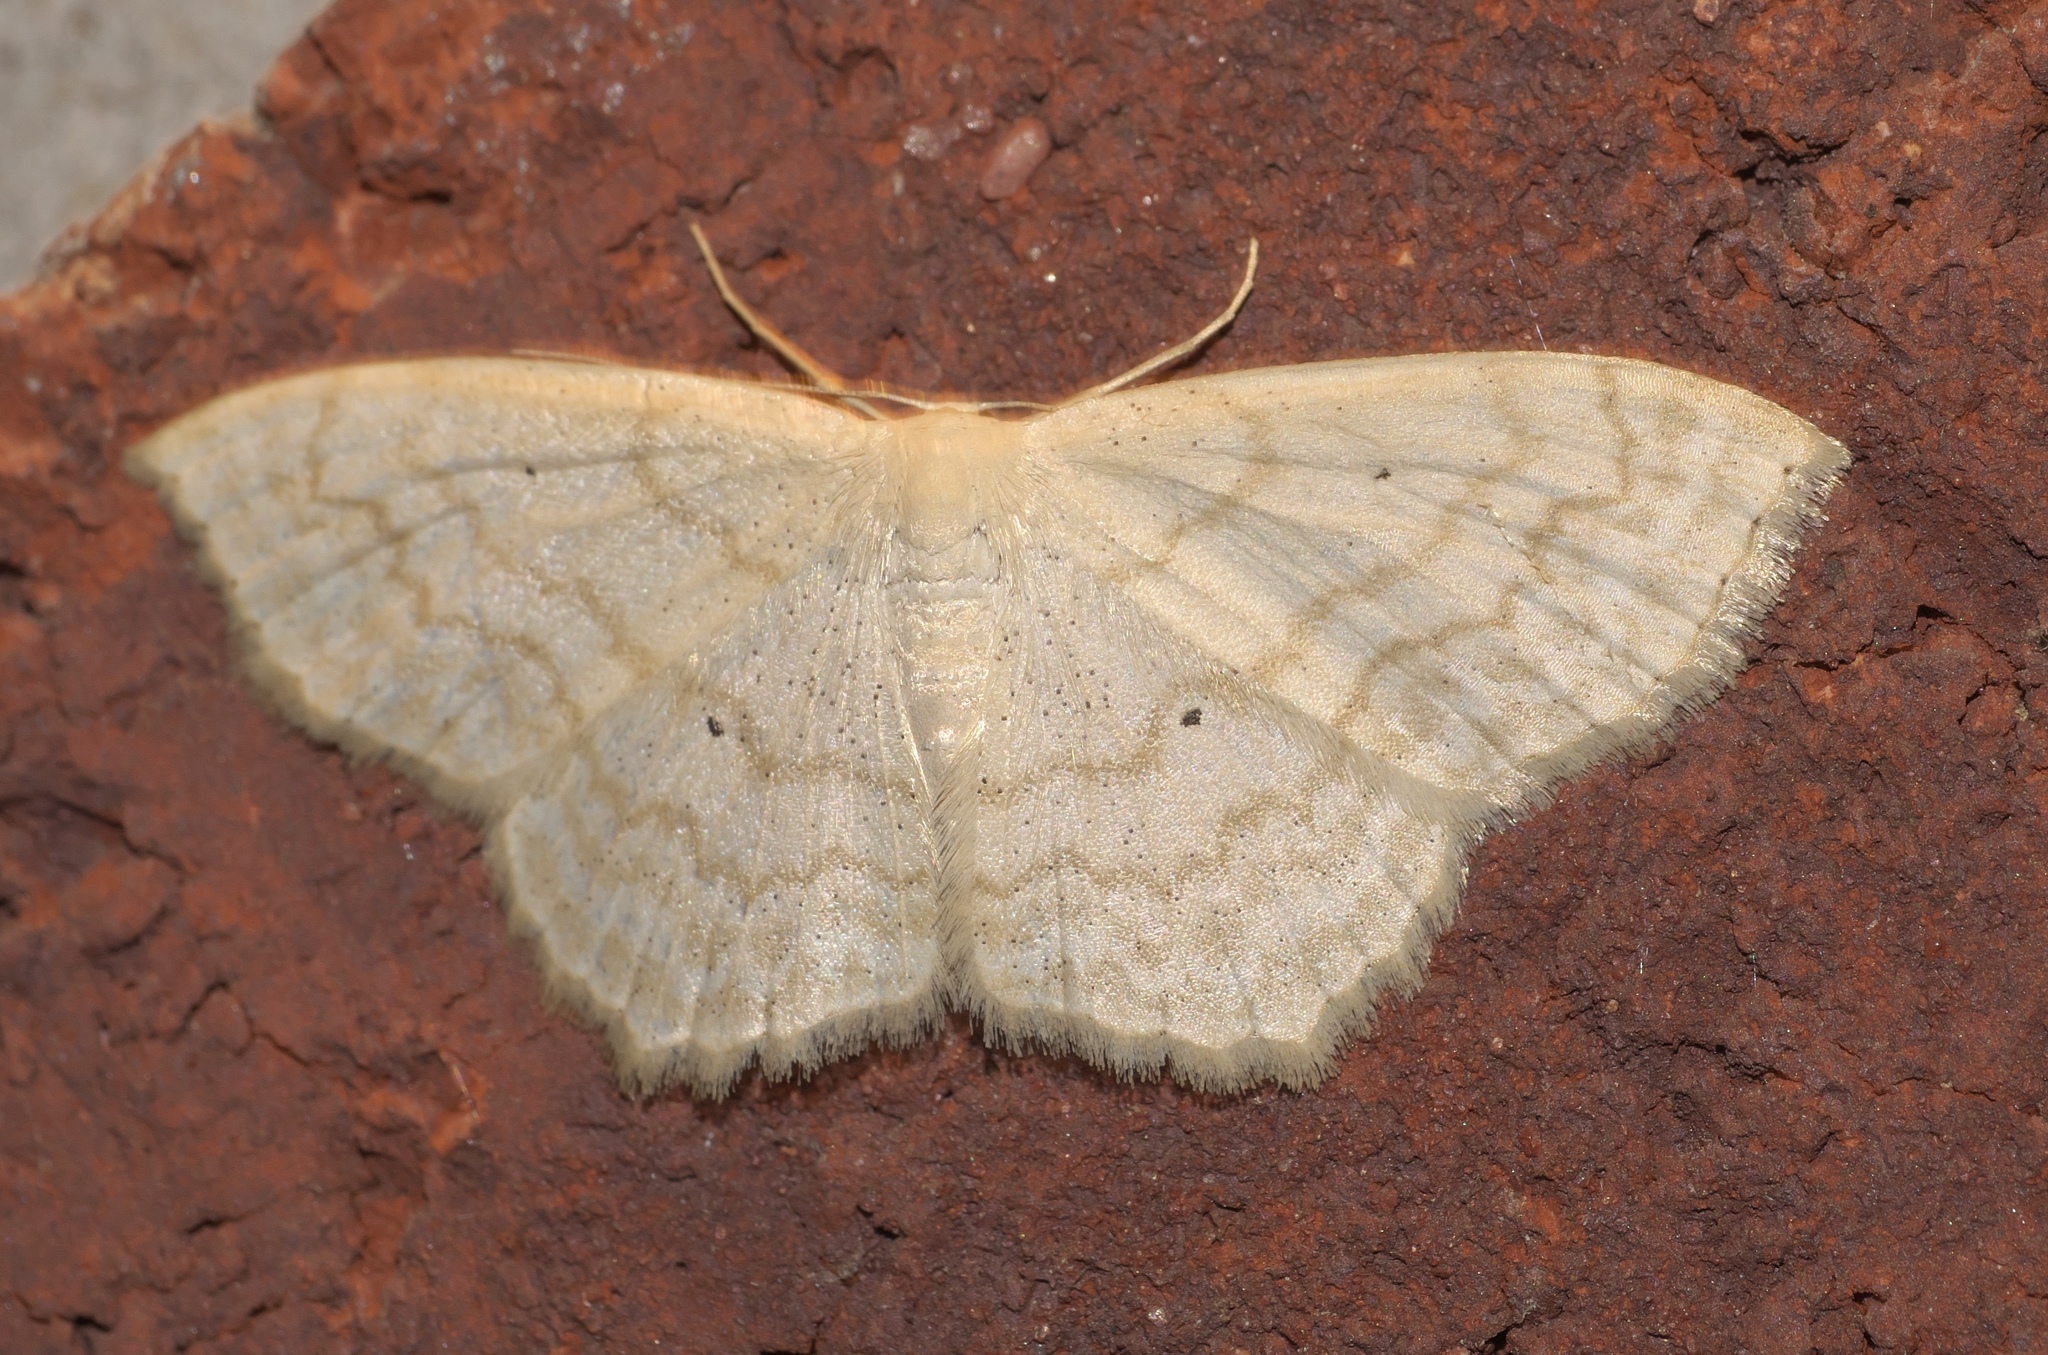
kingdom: Animalia
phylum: Arthropoda
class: Insecta
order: Lepidoptera
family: Geometridae
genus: Scopula
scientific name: Scopula limboundata
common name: Large lace border
